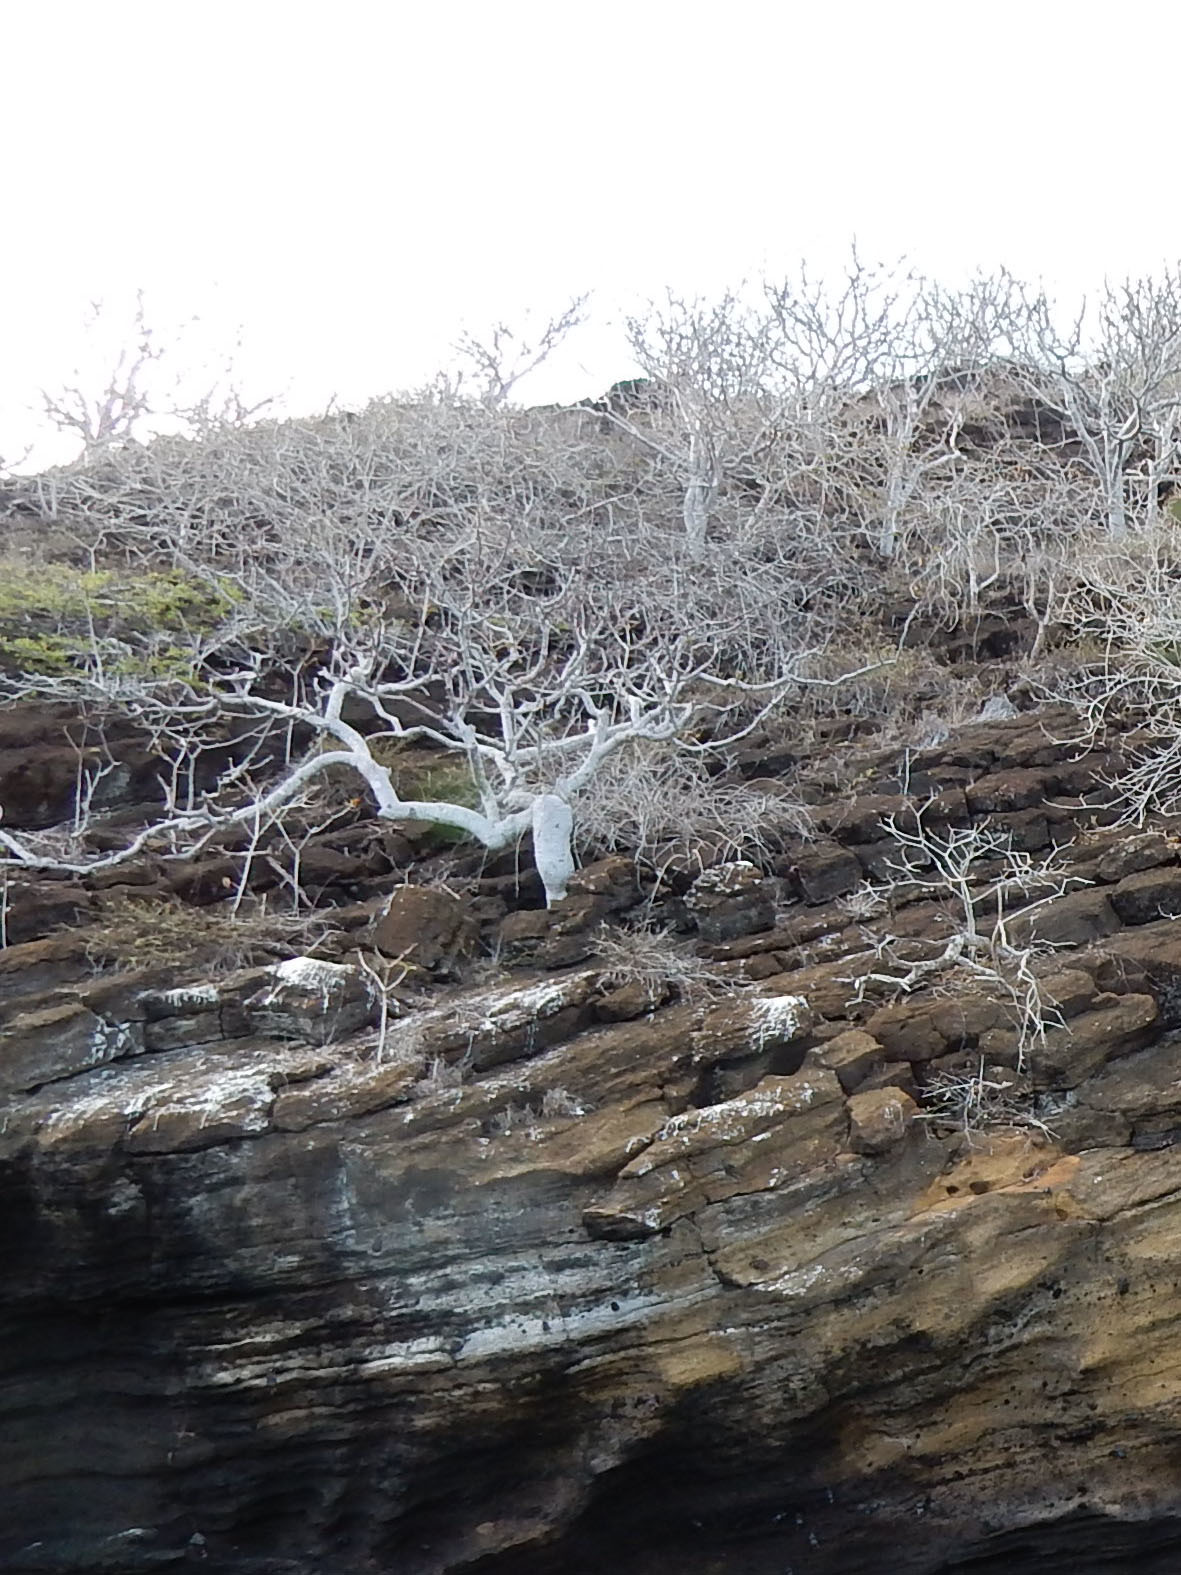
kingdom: Plantae
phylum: Tracheophyta
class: Magnoliopsida
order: Sapindales
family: Burseraceae
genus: Bursera
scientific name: Bursera graveolens
